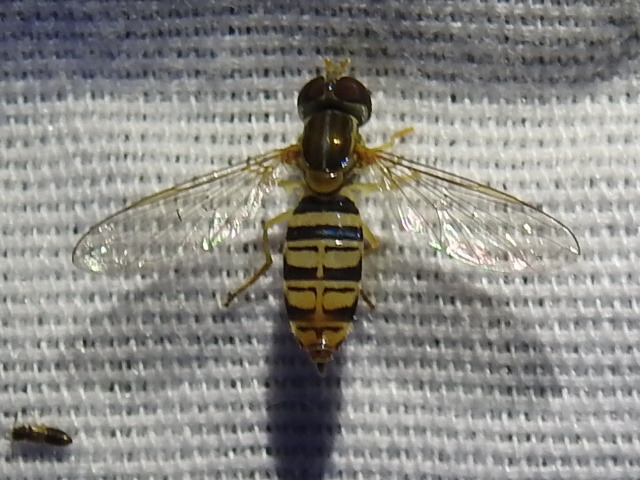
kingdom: Animalia
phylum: Arthropoda
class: Insecta
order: Diptera
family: Syrphidae
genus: Toxomerus
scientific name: Toxomerus politus
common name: Maize calligrapher
